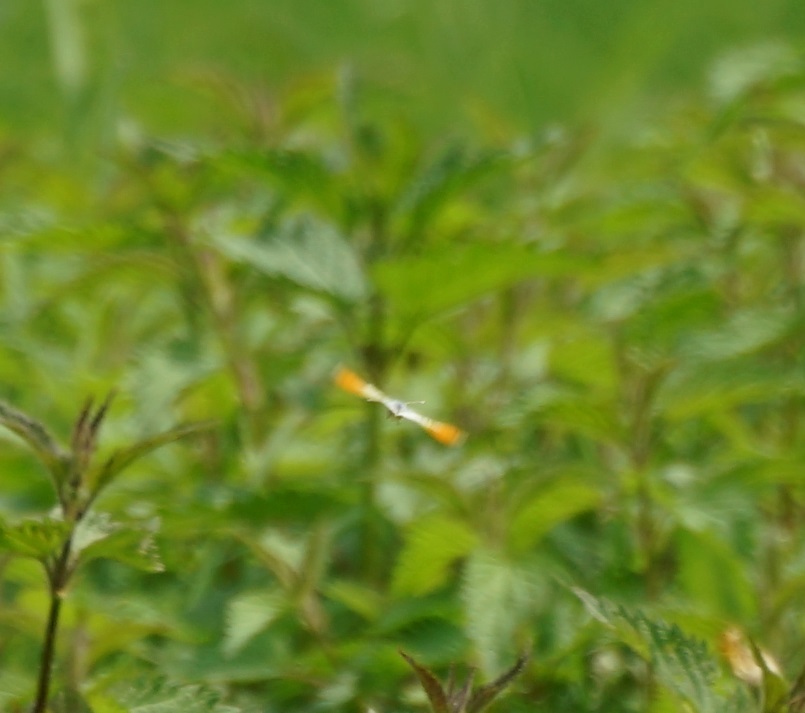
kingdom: Animalia
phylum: Arthropoda
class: Insecta
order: Lepidoptera
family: Pieridae
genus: Anthocharis
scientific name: Anthocharis cardamines
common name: Orange-tip
